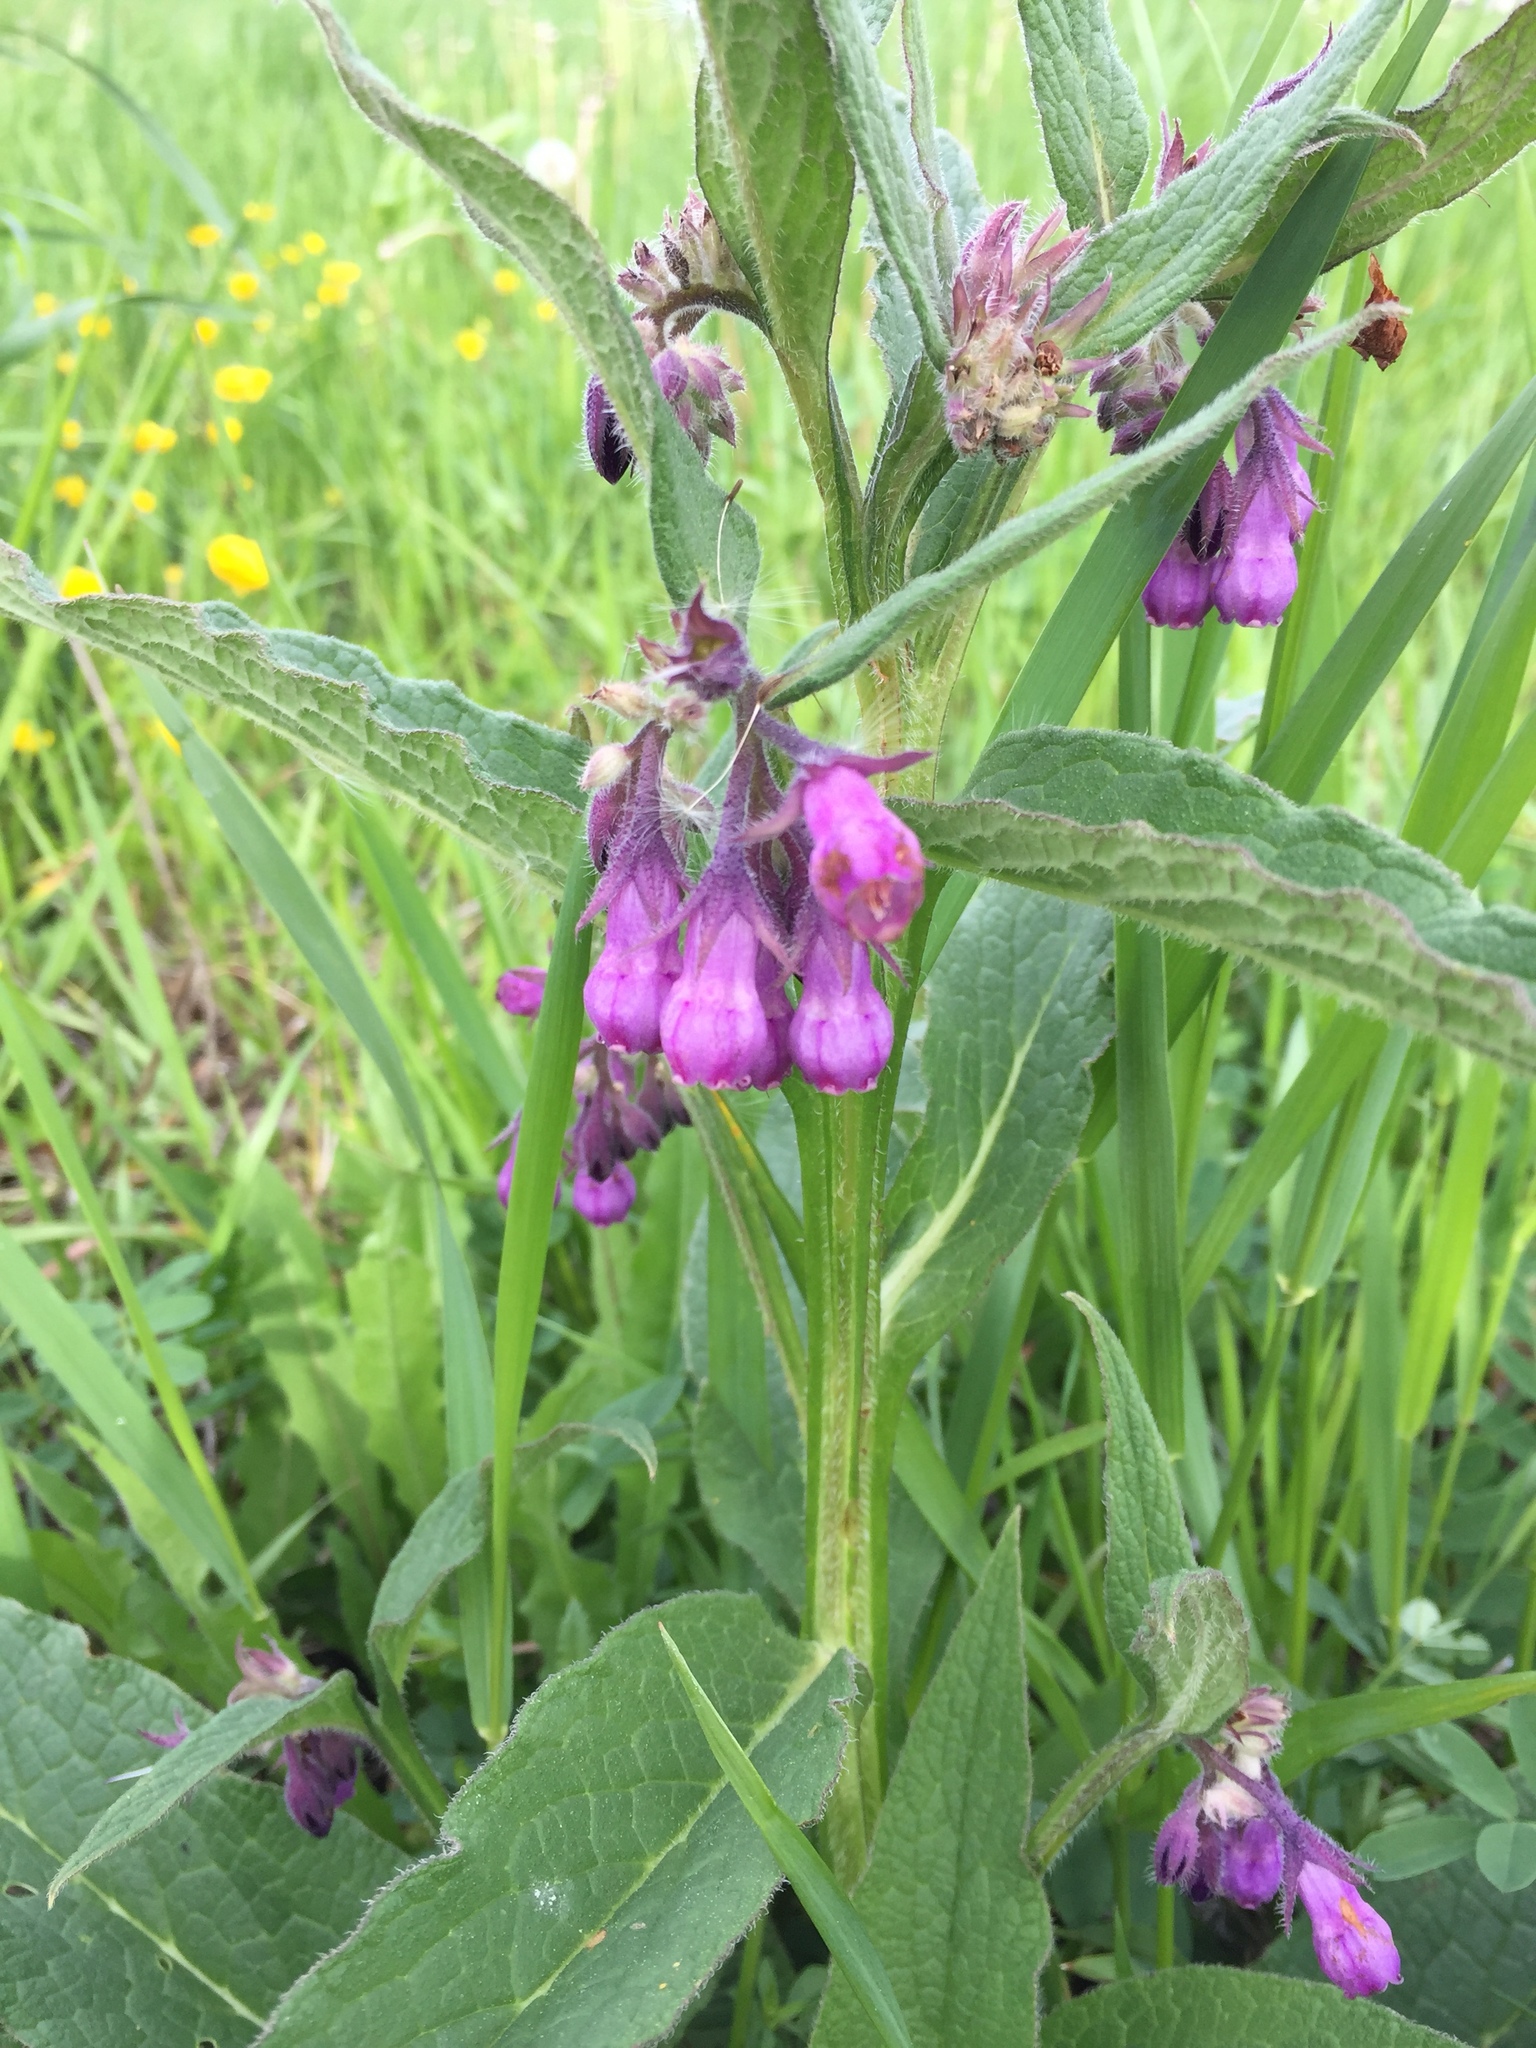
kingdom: Plantae
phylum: Tracheophyta
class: Magnoliopsida
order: Boraginales
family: Boraginaceae
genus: Symphytum
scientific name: Symphytum officinale
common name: Common comfrey
